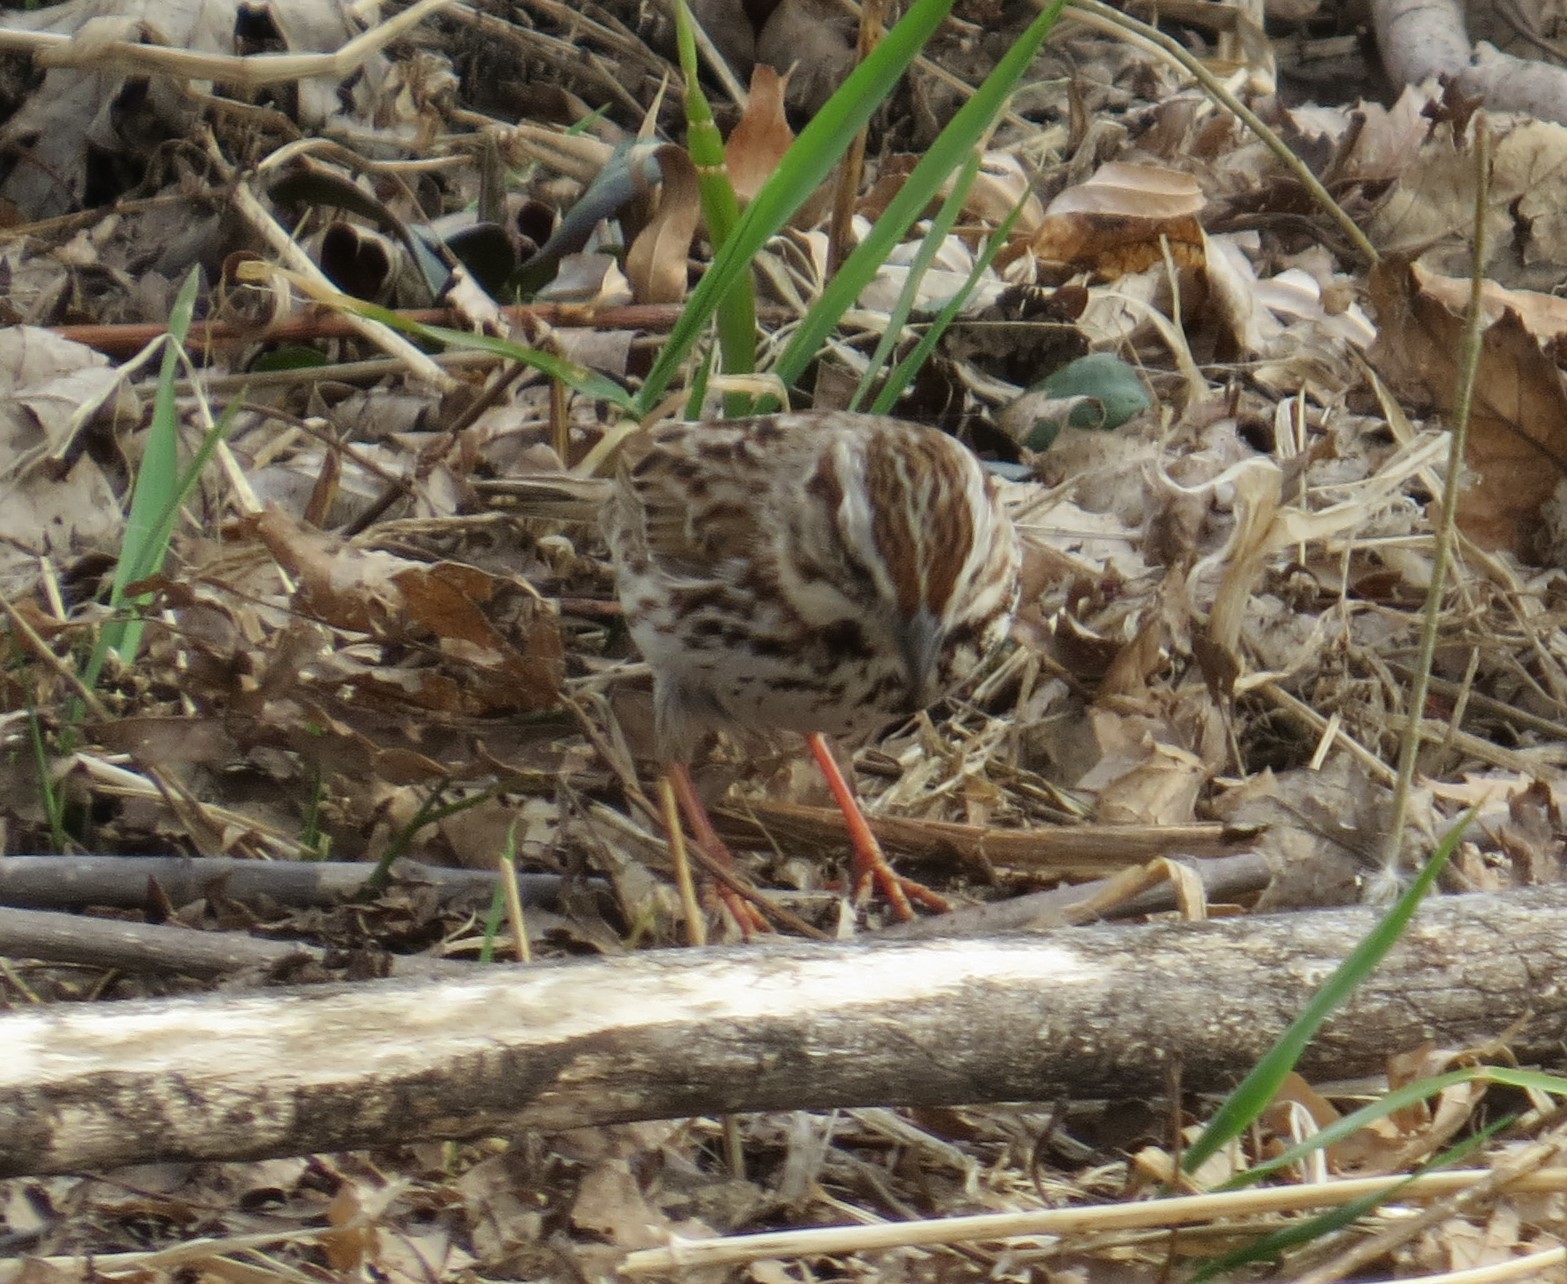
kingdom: Animalia
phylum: Chordata
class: Aves
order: Passeriformes
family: Passerellidae
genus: Melospiza
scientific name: Melospiza melodia
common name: Song sparrow
